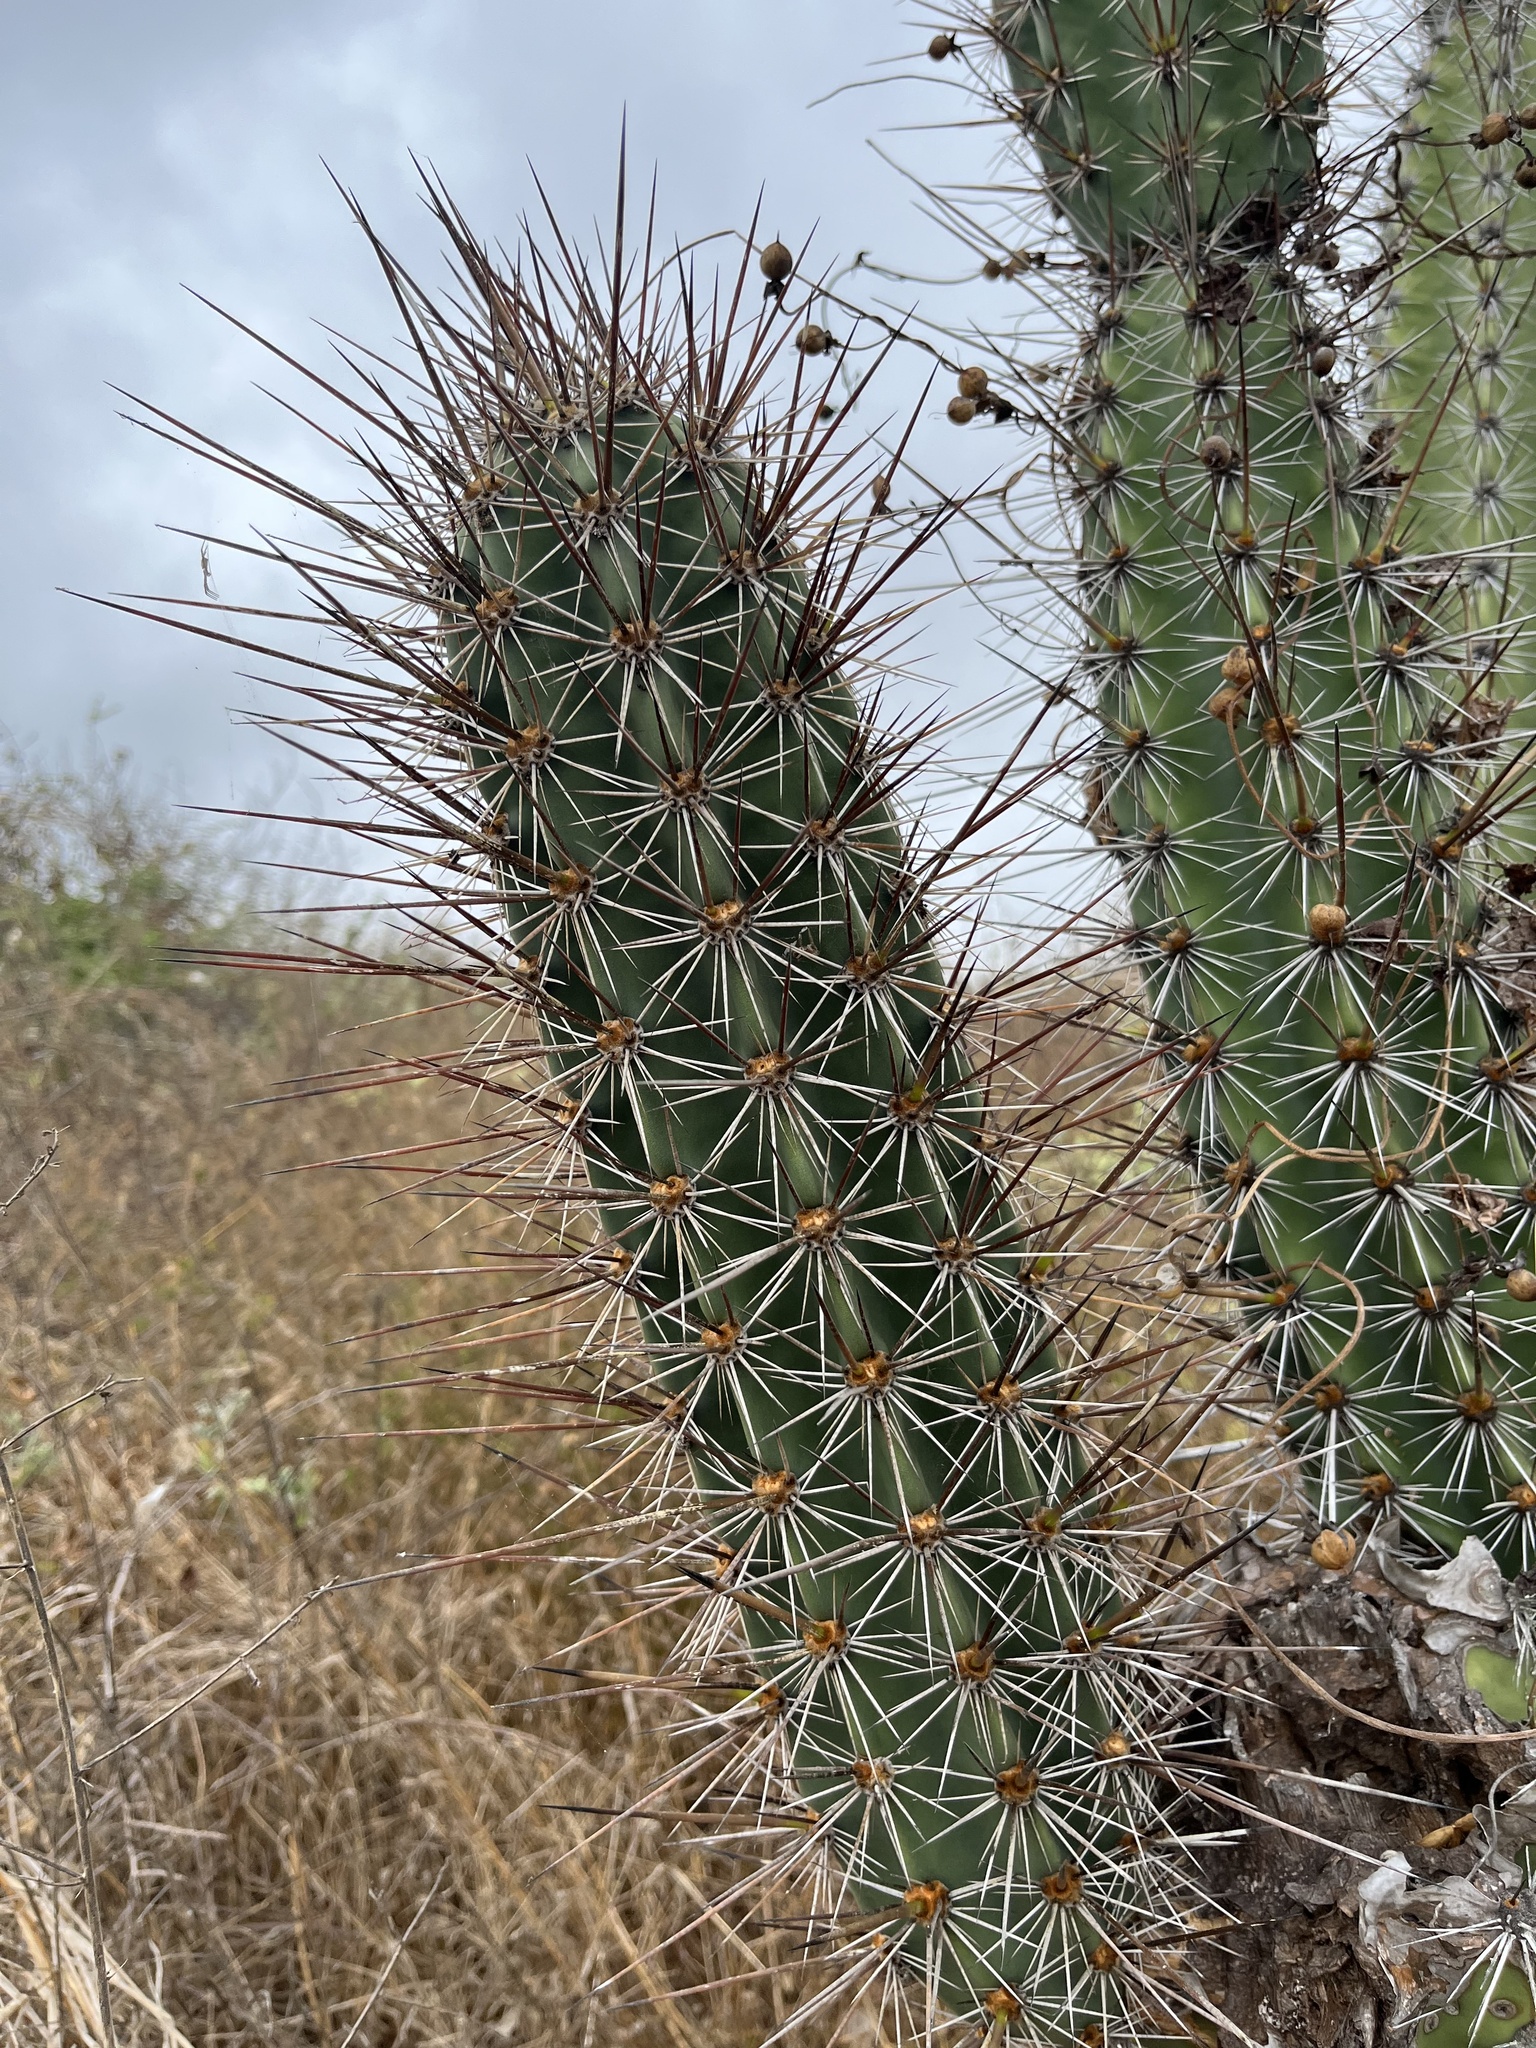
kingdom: Plantae
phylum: Tracheophyta
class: Magnoliopsida
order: Caryophyllales
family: Cactaceae
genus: Armatocereus
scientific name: Armatocereus cartwrightianus
